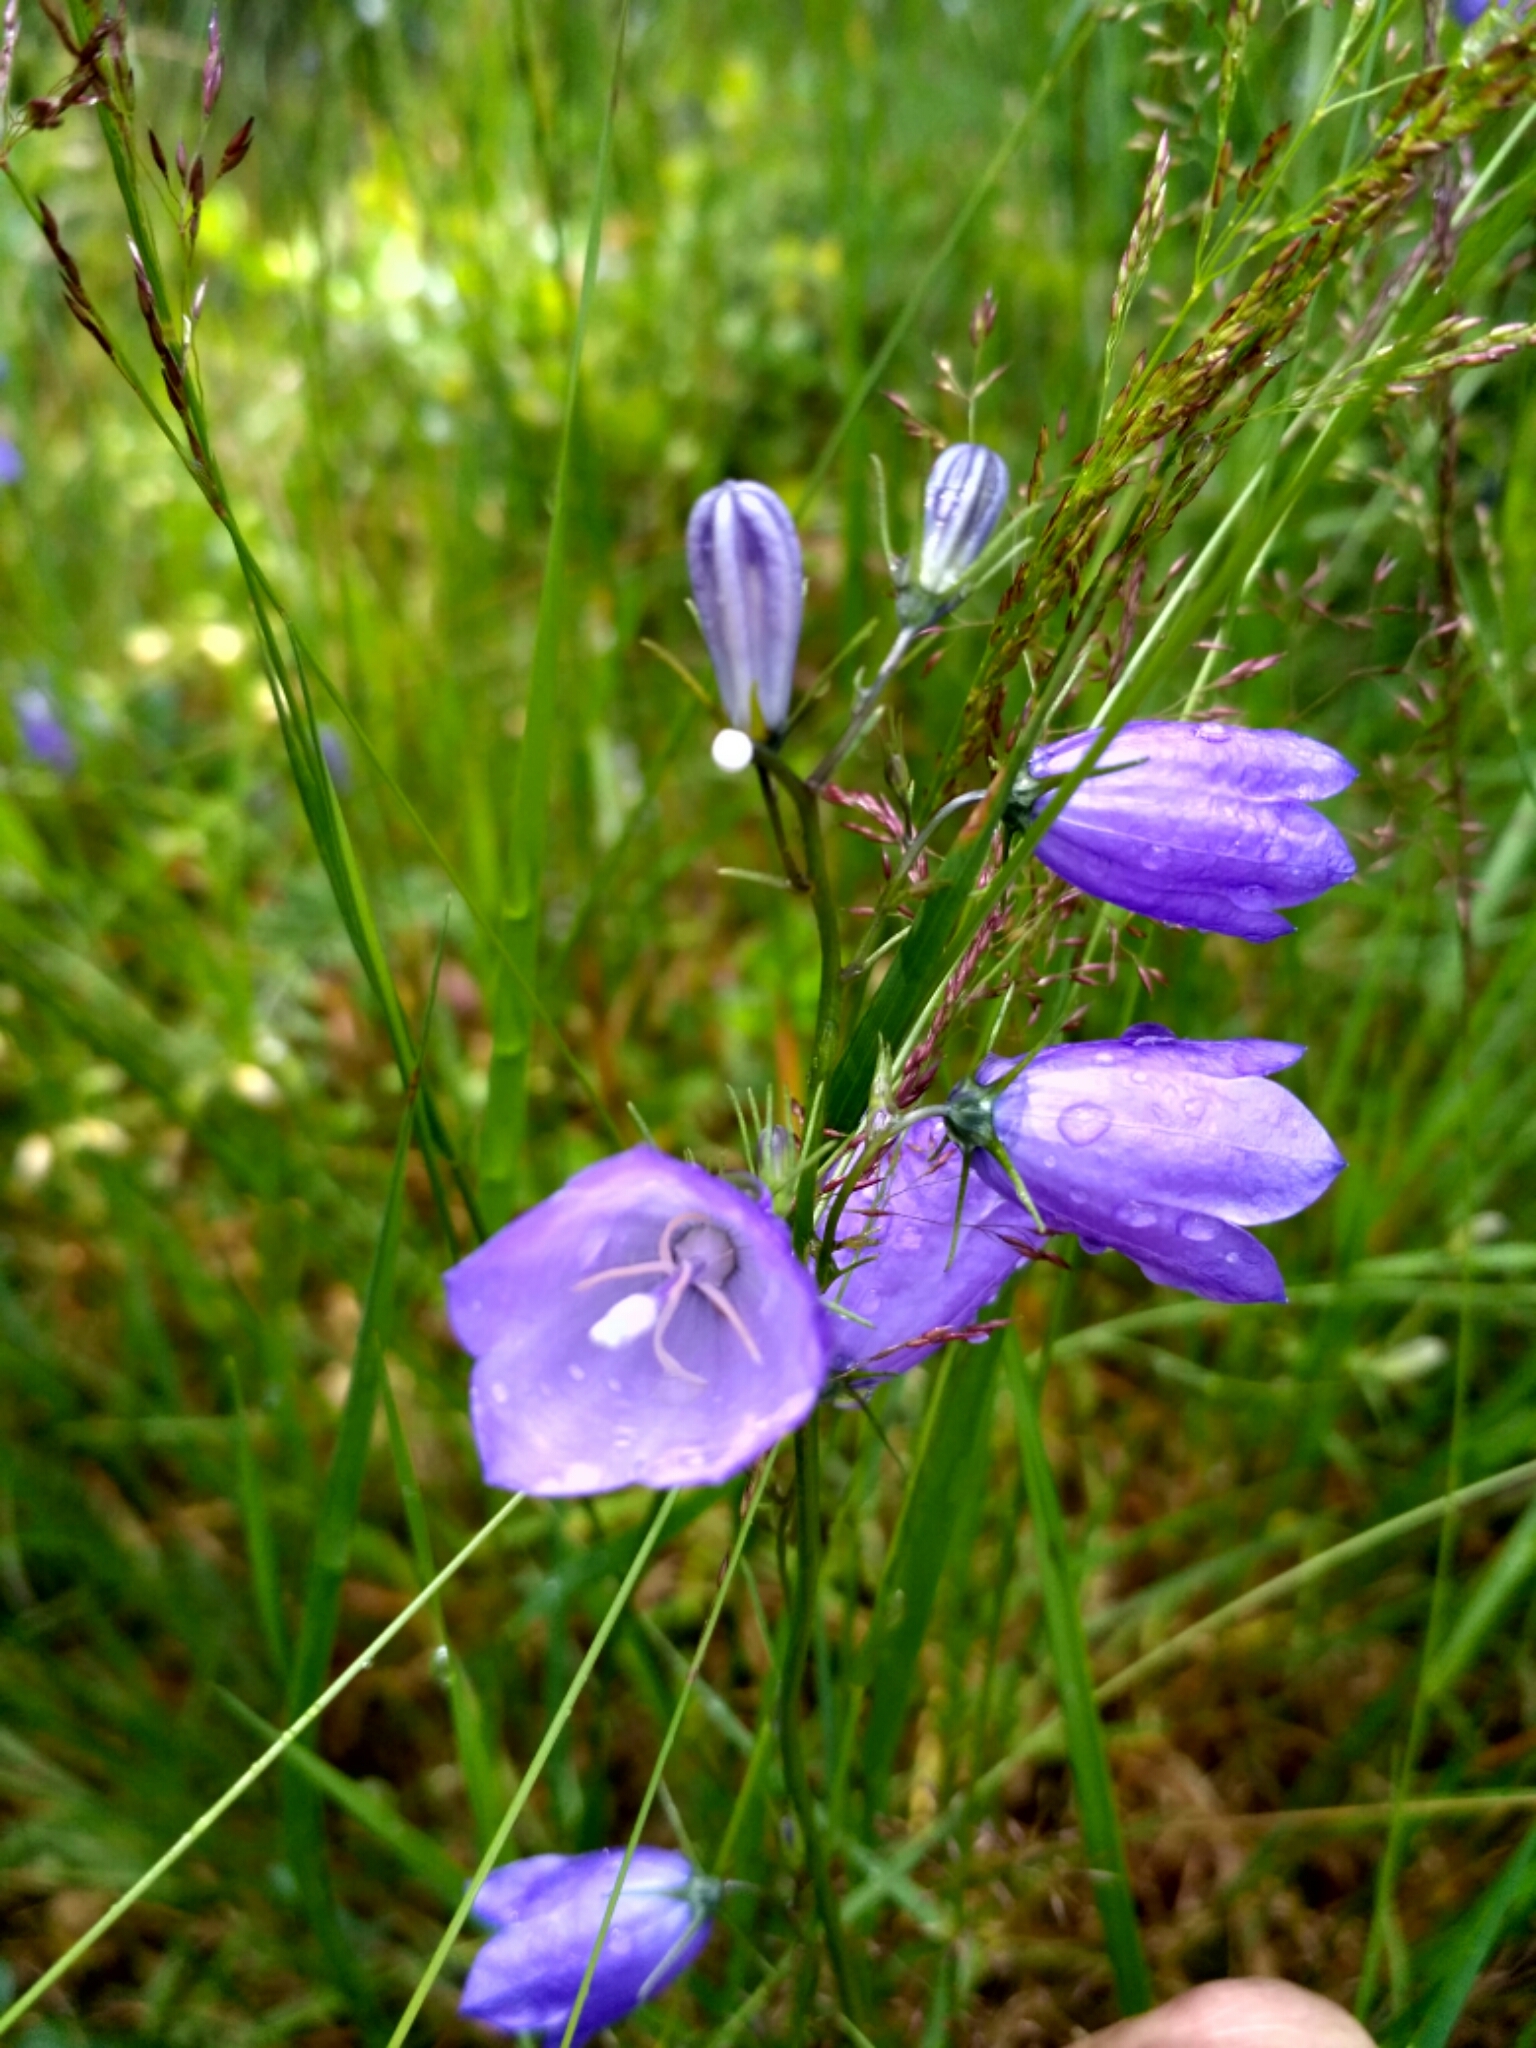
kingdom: Plantae
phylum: Tracheophyta
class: Magnoliopsida
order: Asterales
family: Campanulaceae
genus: Campanula
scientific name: Campanula rotundifolia
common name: Harebell
